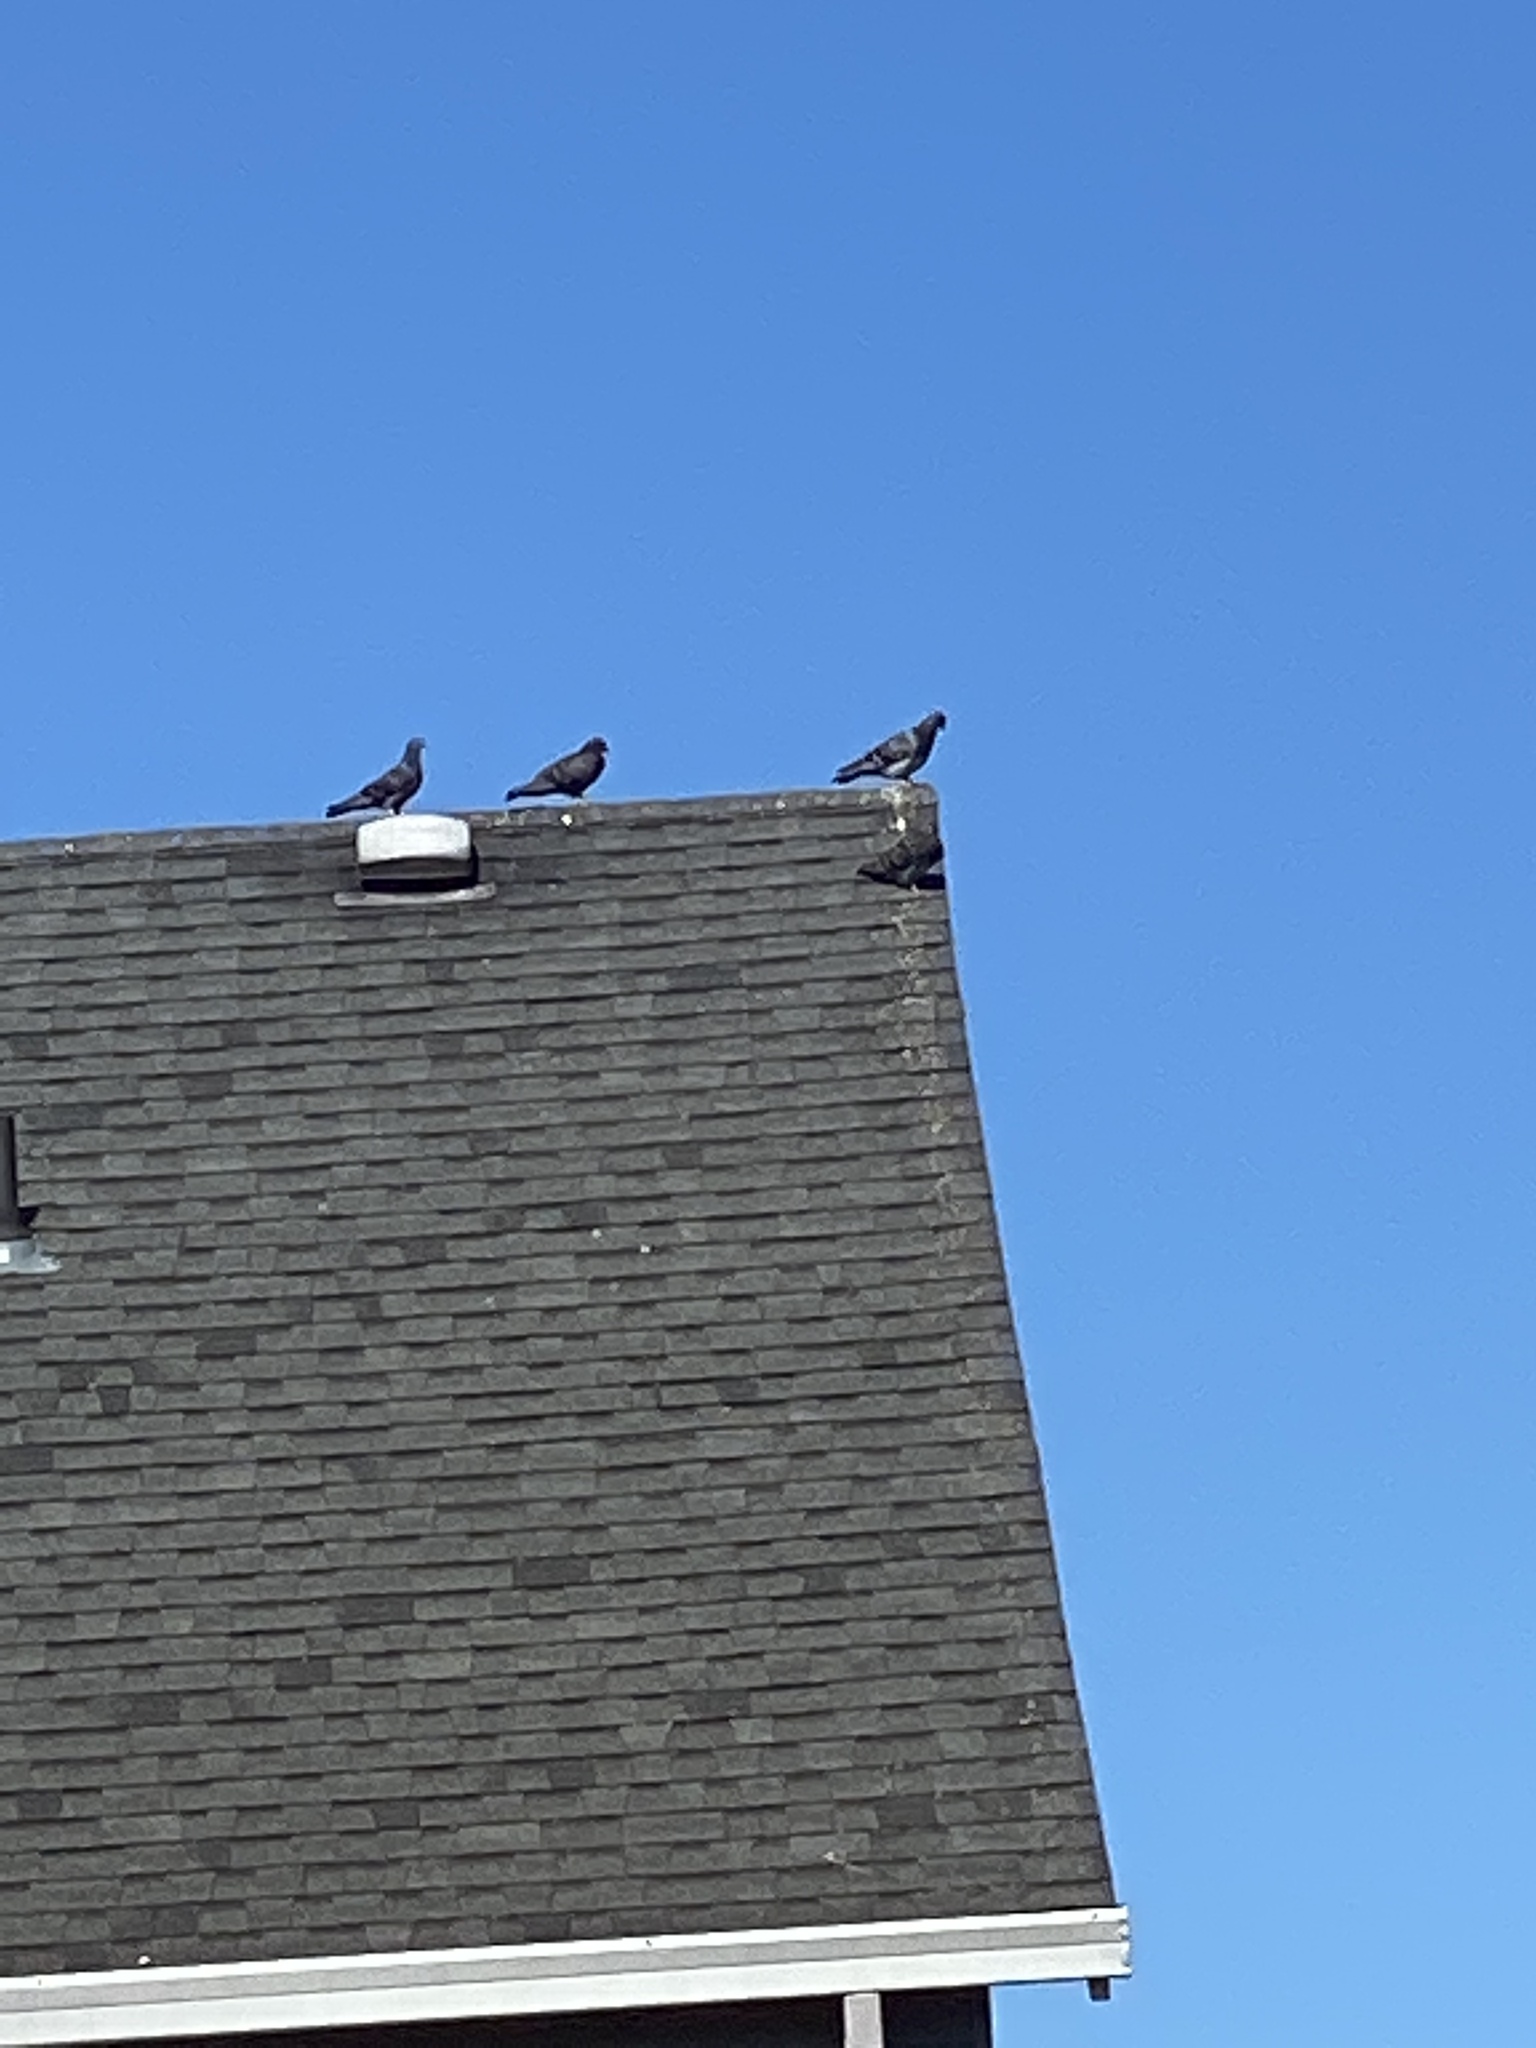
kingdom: Animalia
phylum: Chordata
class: Aves
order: Columbiformes
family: Columbidae
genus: Columba
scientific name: Columba livia
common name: Rock pigeon
